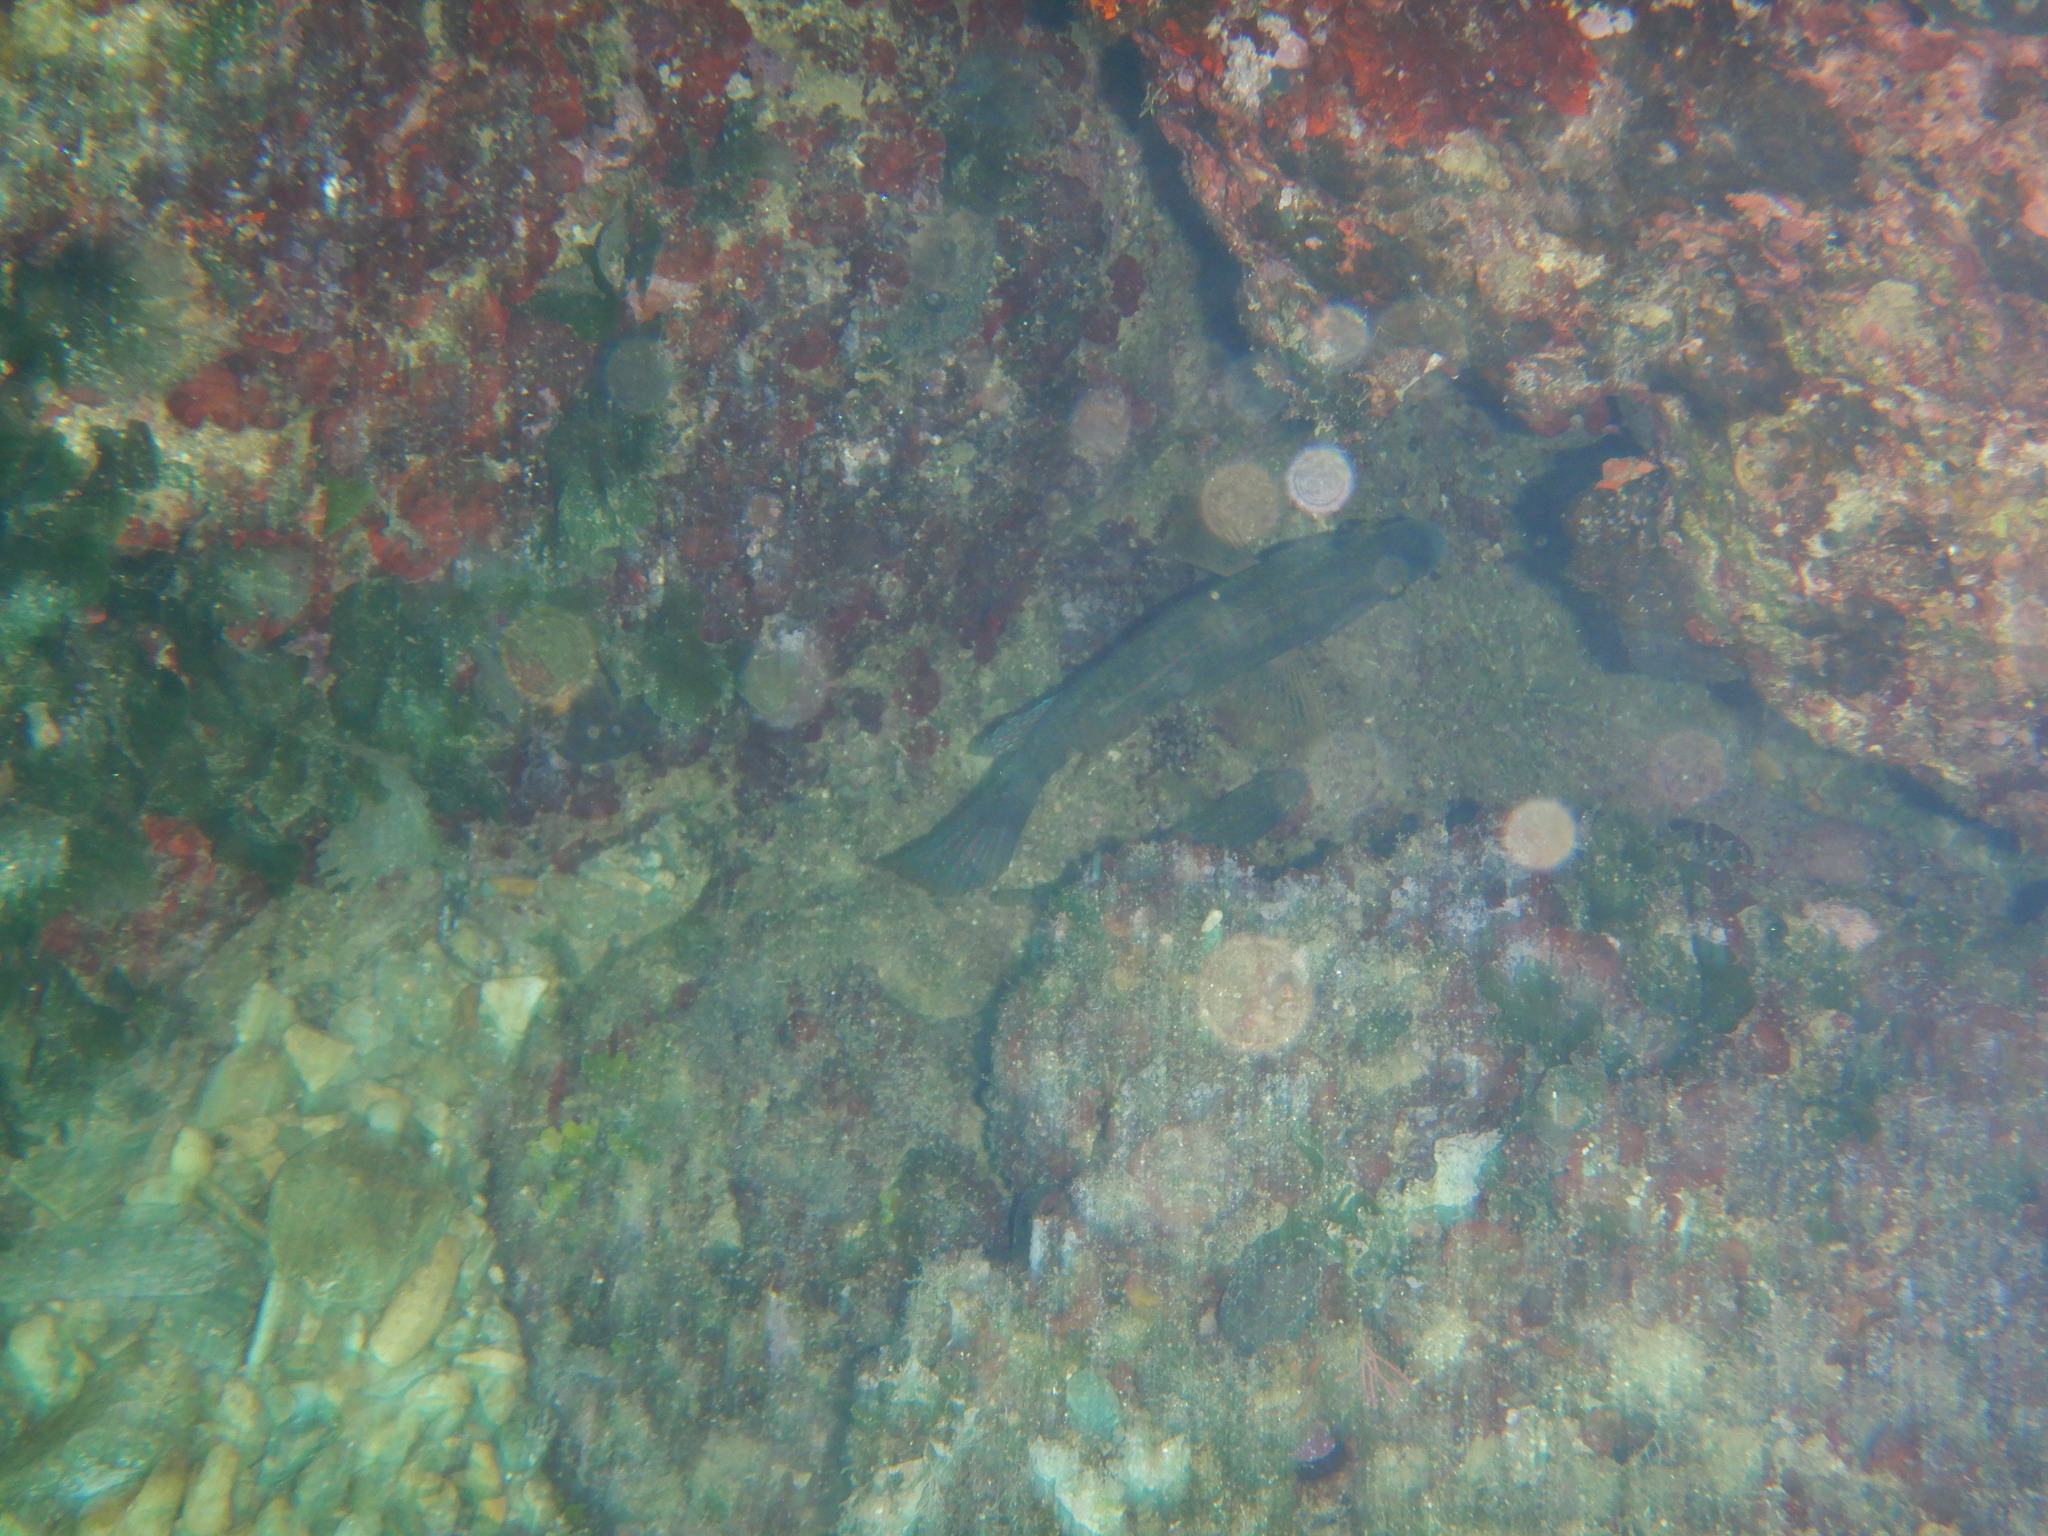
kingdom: Animalia
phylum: Chordata
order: Perciformes
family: Labridae
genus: Symphodus
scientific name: Symphodus
